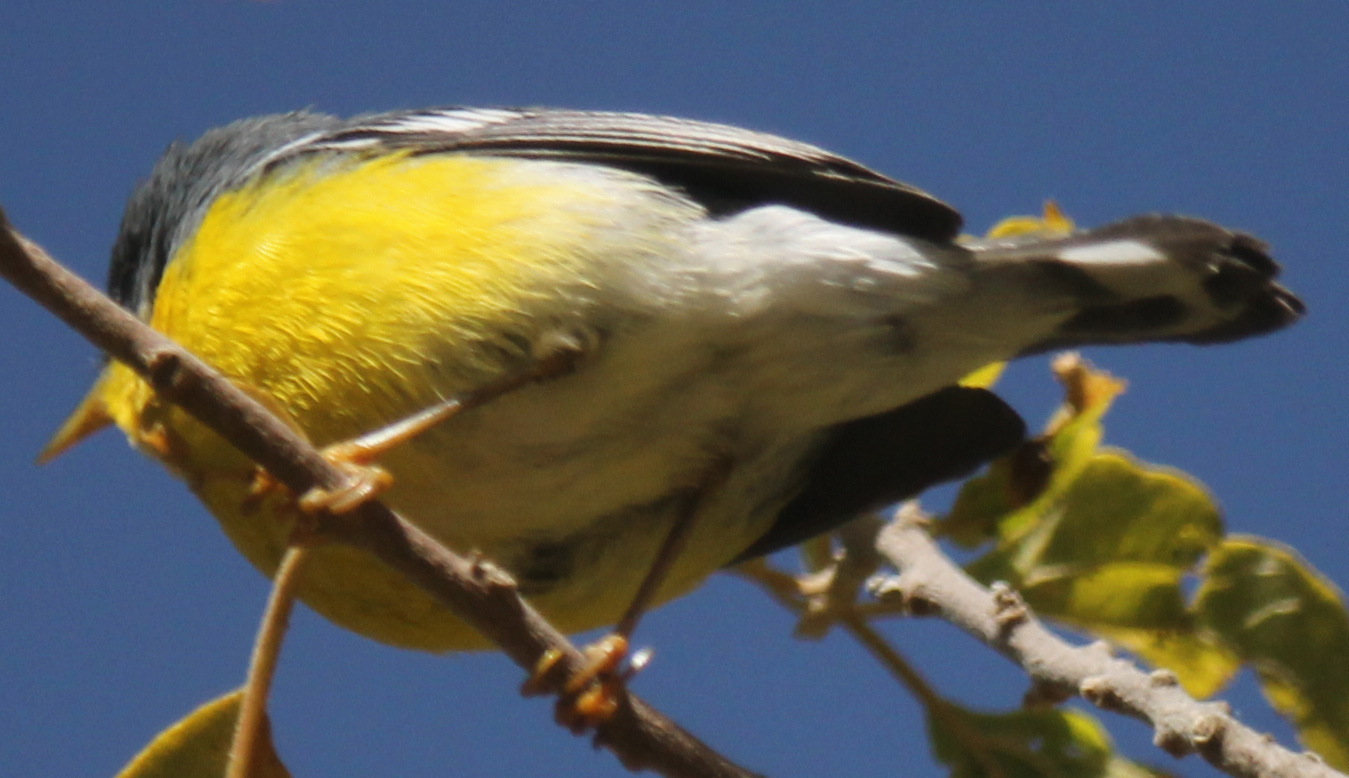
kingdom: Animalia
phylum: Chordata
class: Aves
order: Passeriformes
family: Parulidae
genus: Setophaga
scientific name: Setophaga pitiayumi
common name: Tropical parula
